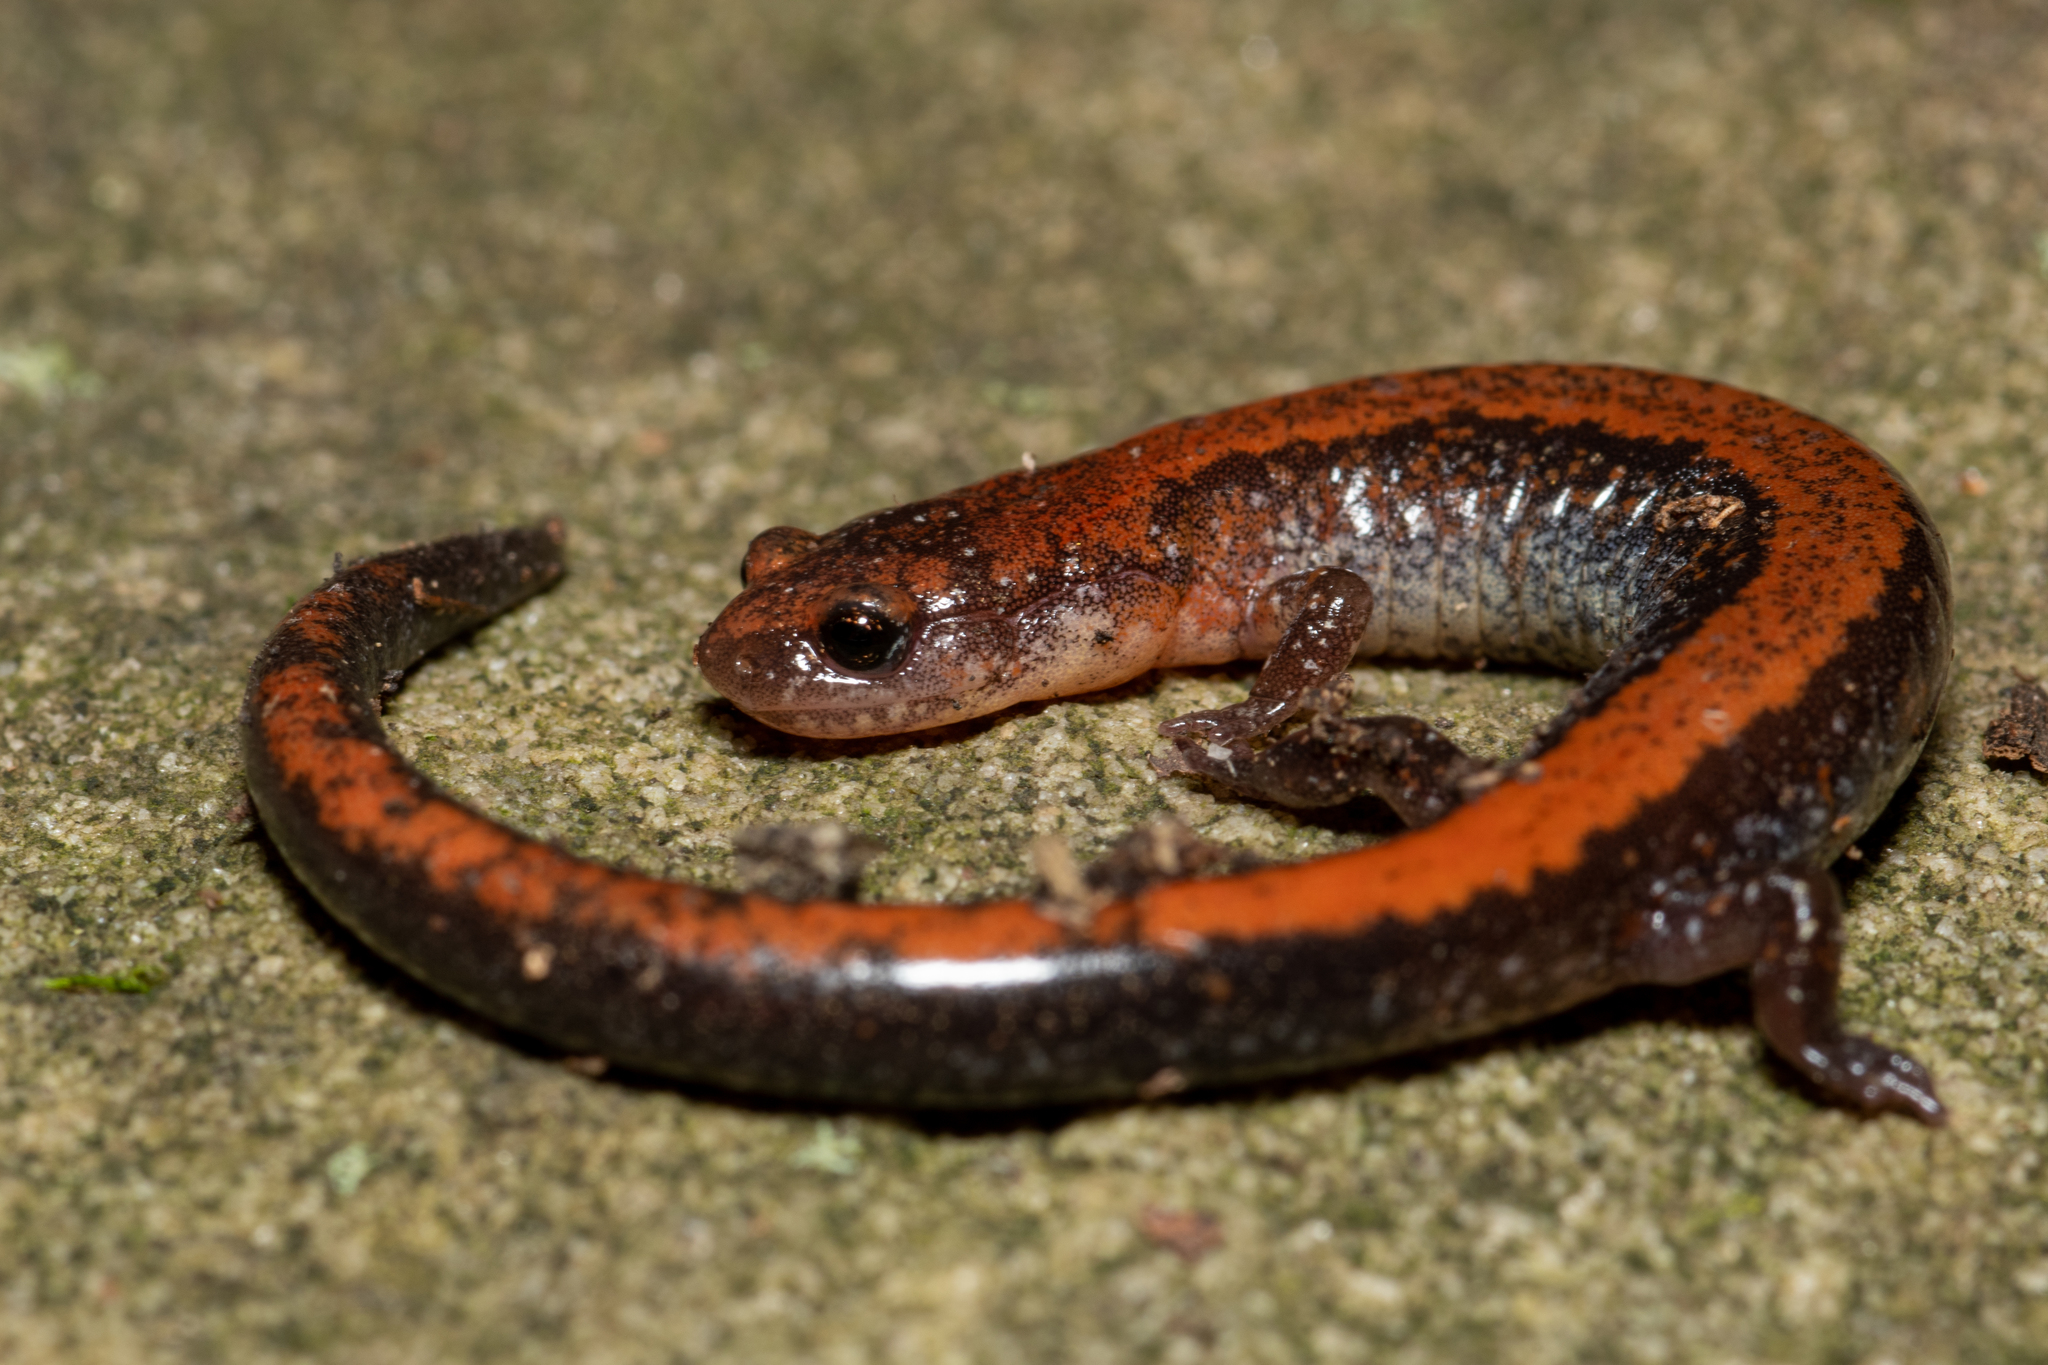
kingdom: Animalia
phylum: Chordata
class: Amphibia
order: Caudata
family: Plethodontidae
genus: Plethodon
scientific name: Plethodon cinereus
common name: Redback salamander
